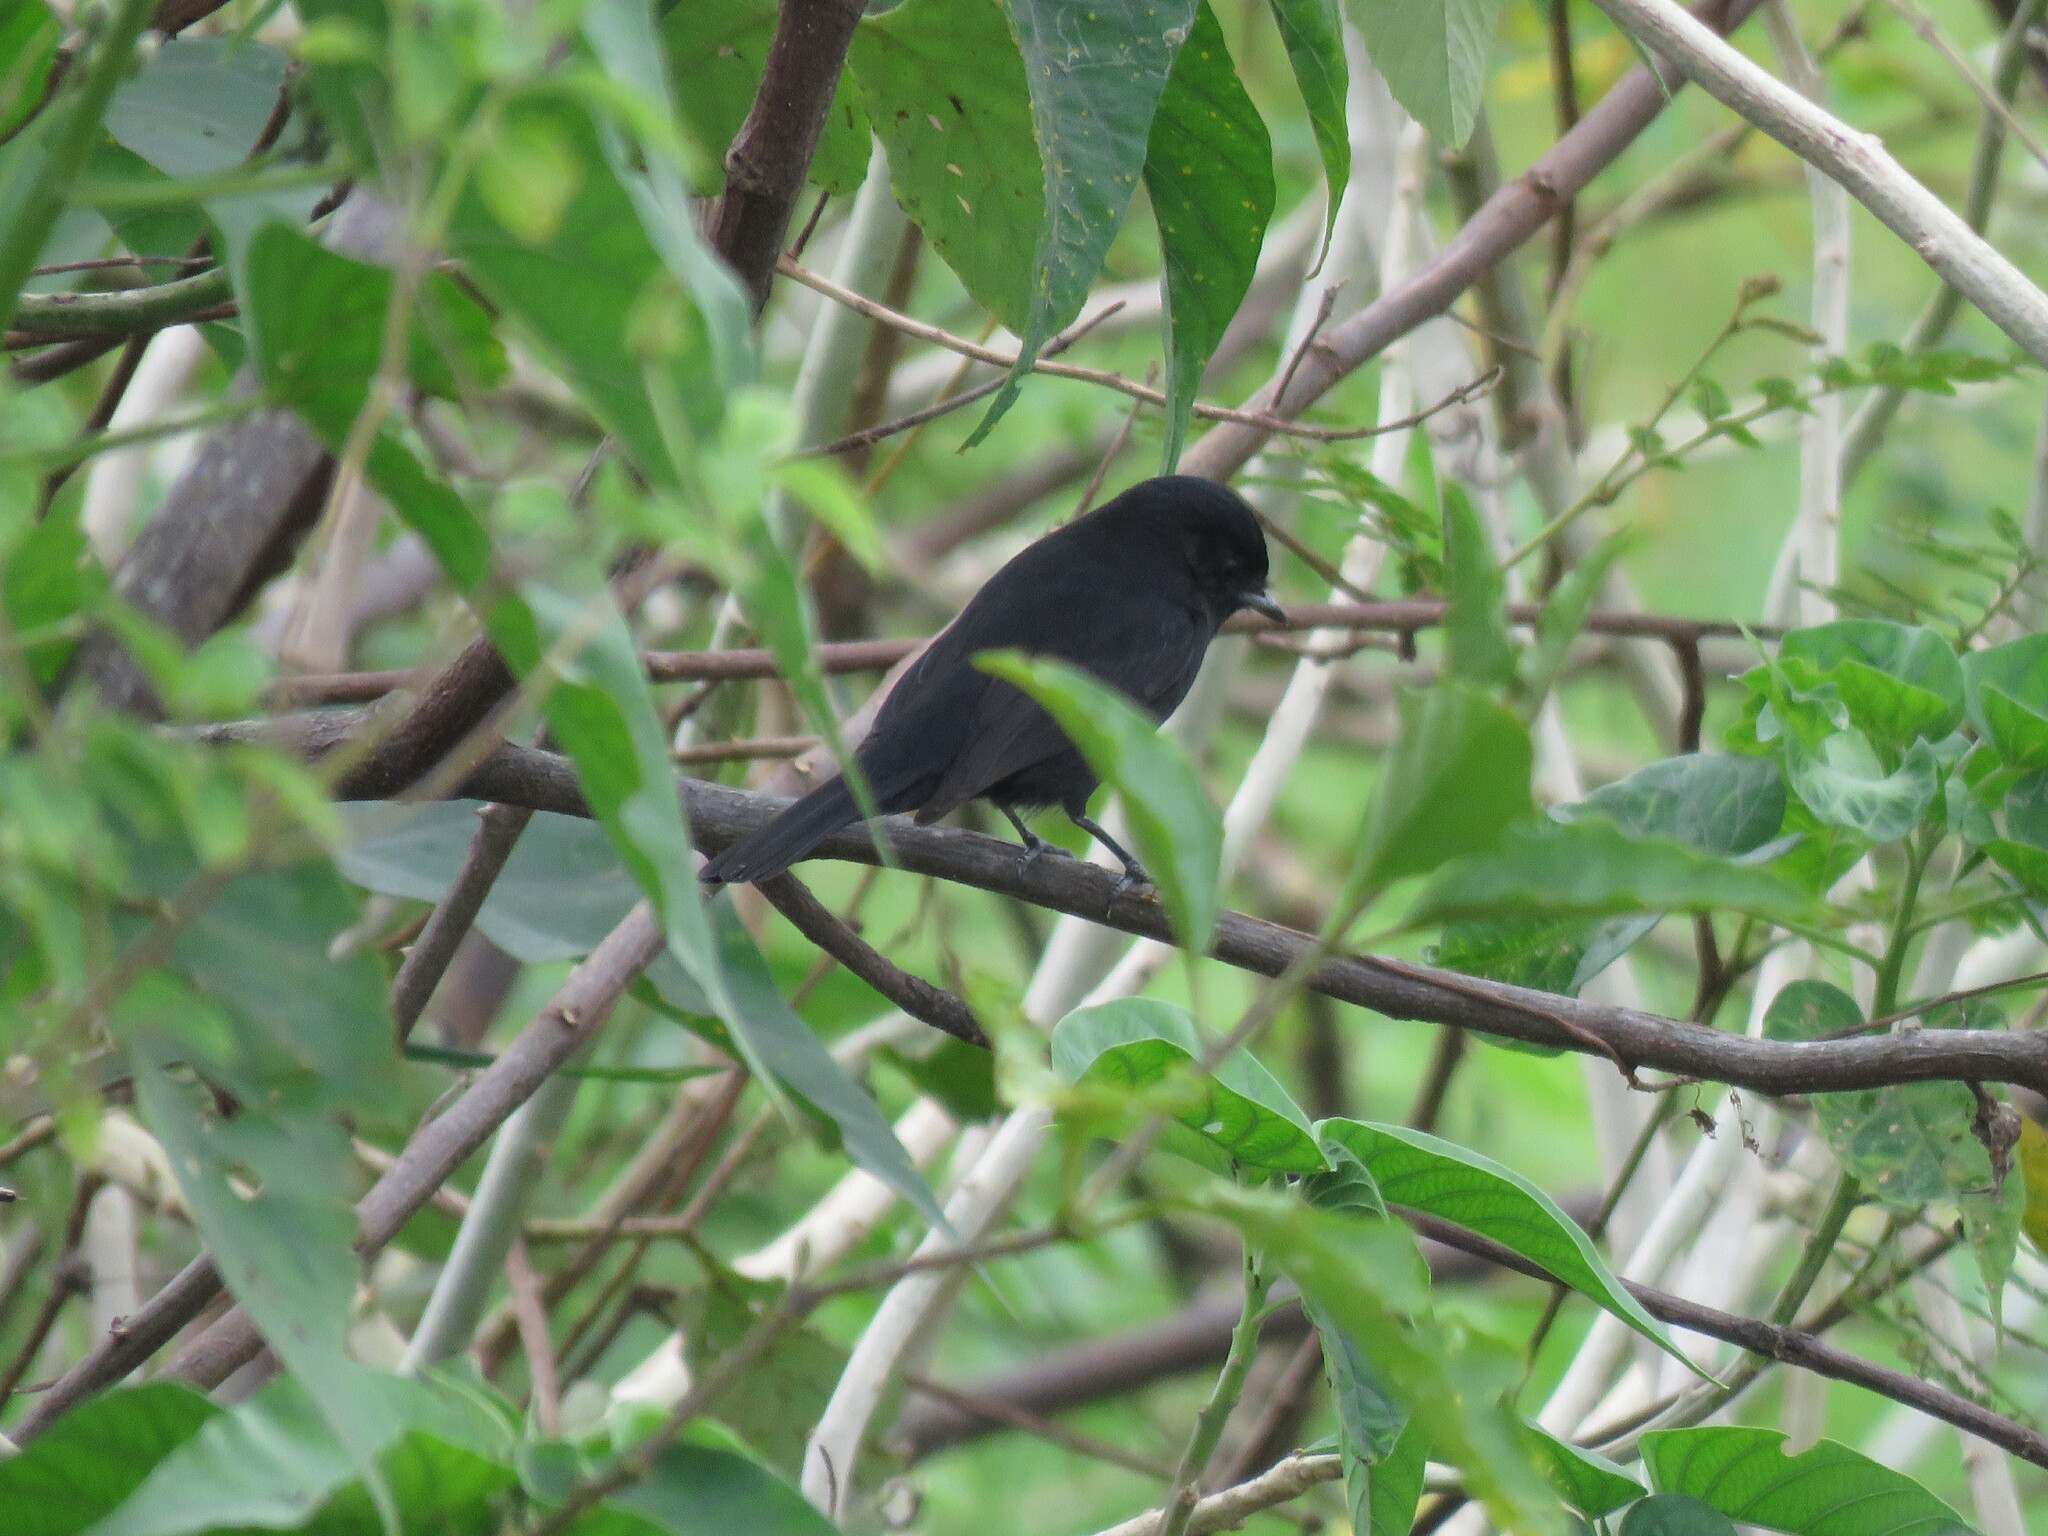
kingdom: Animalia
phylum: Chordata
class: Aves
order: Passeriformes
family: Tyrannidae
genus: Knipolegus
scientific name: Knipolegus hudsoni
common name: Hudson's black tyrant
